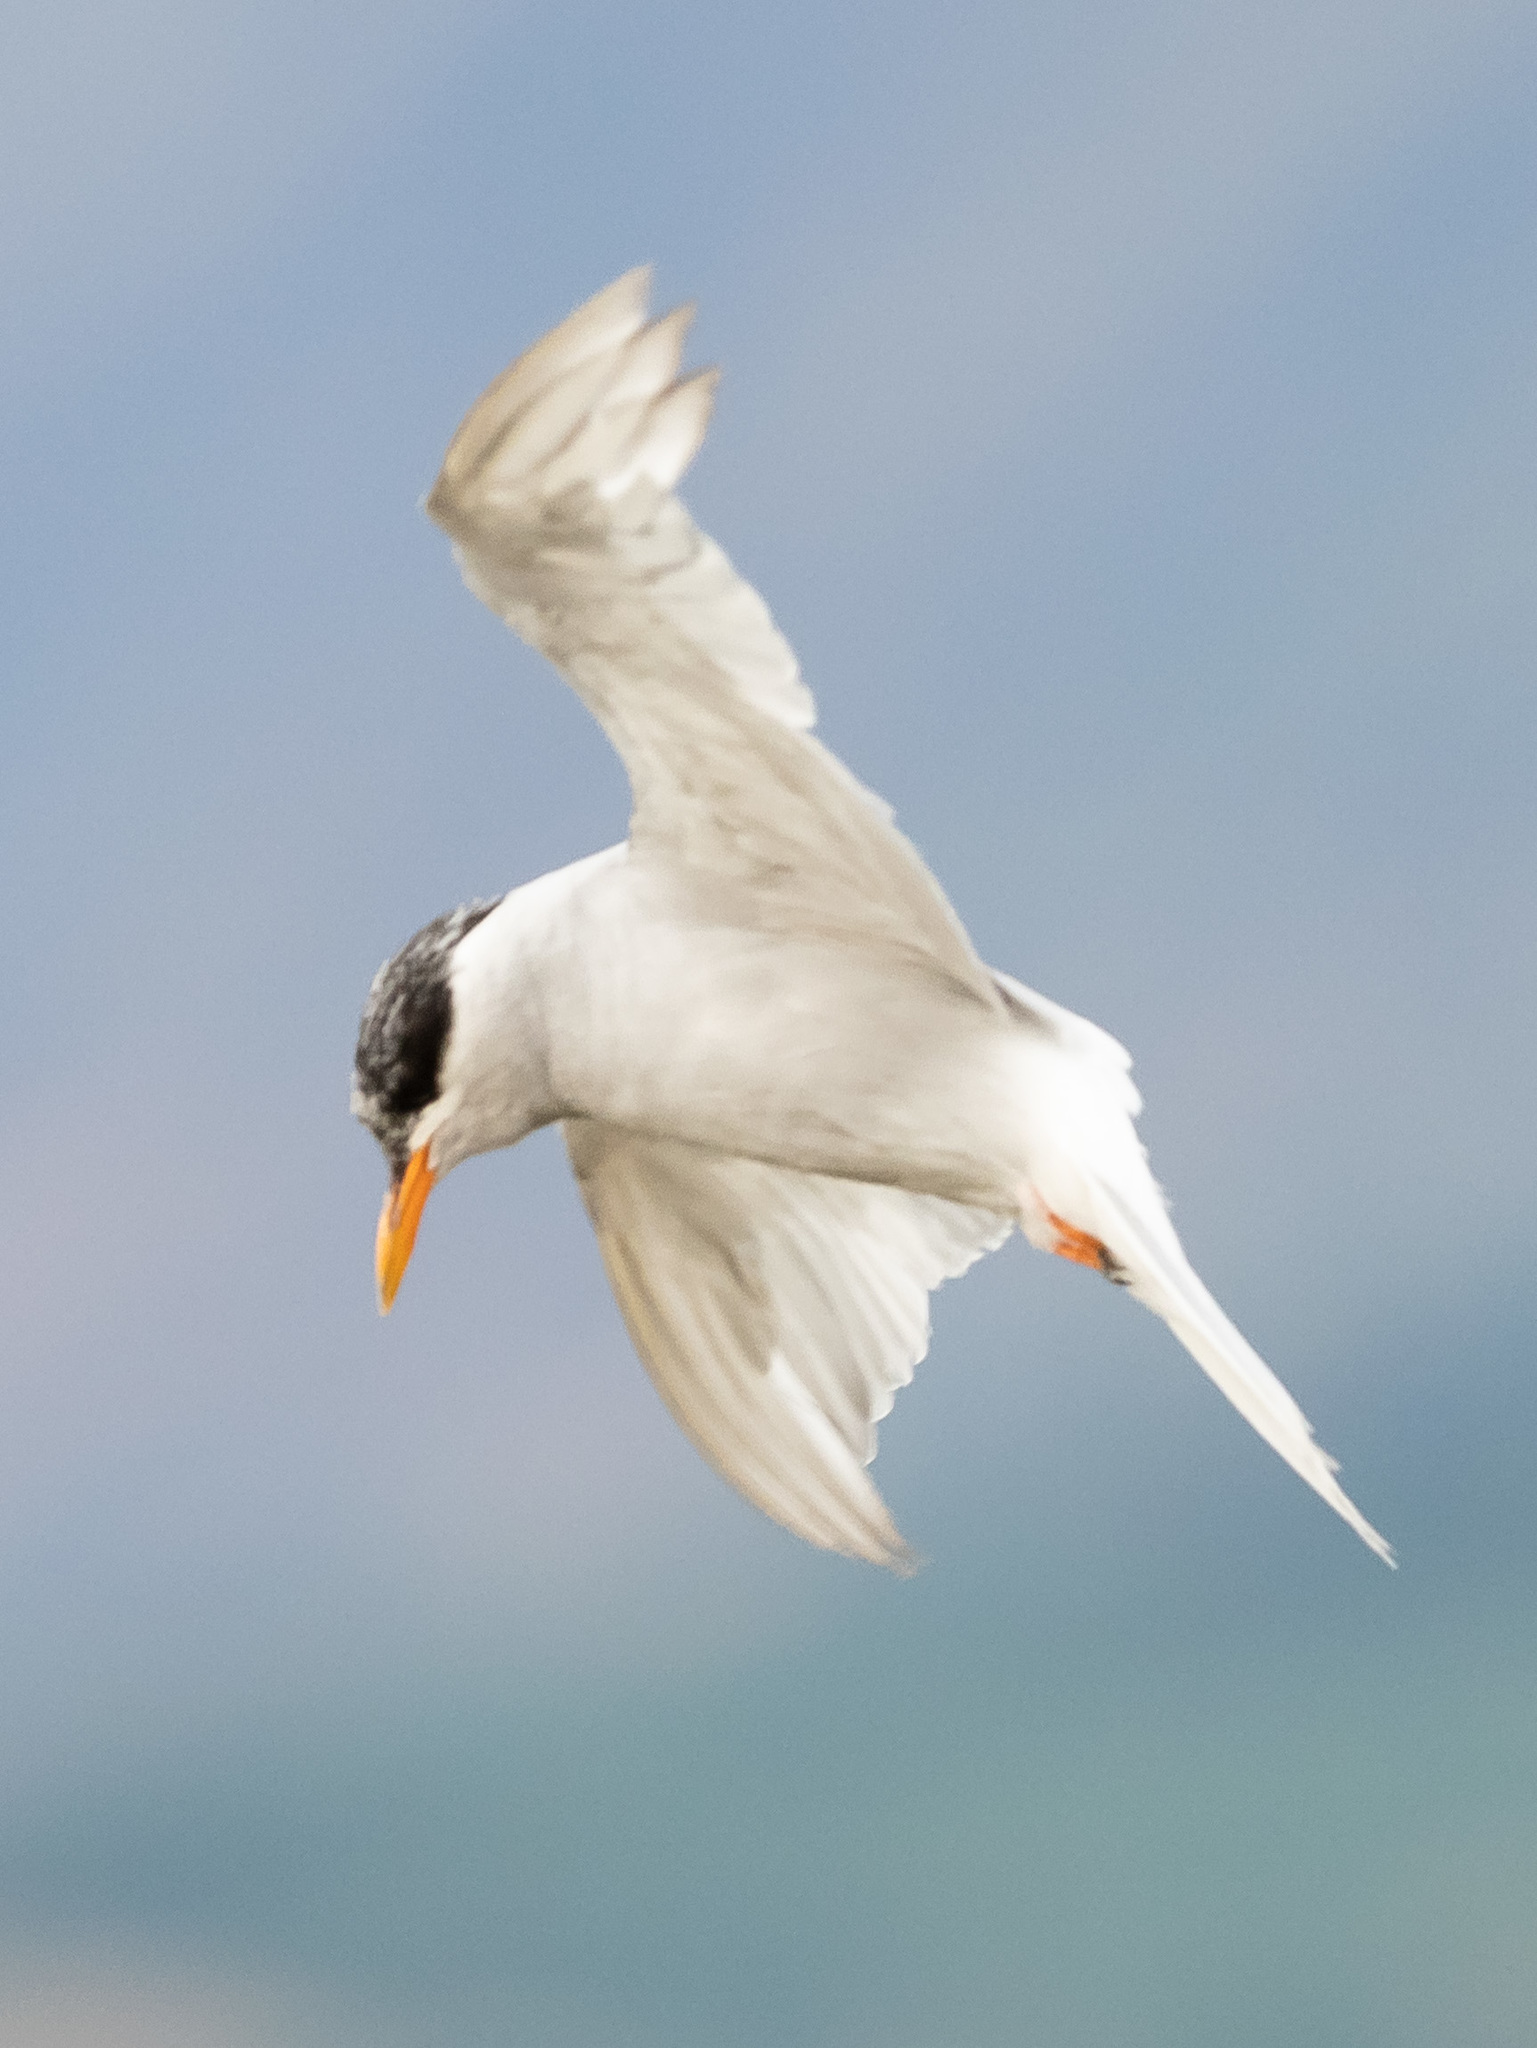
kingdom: Animalia
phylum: Chordata
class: Aves
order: Charadriiformes
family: Laridae
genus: Chlidonias
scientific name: Chlidonias albostriatus
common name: Black-fronted tern
